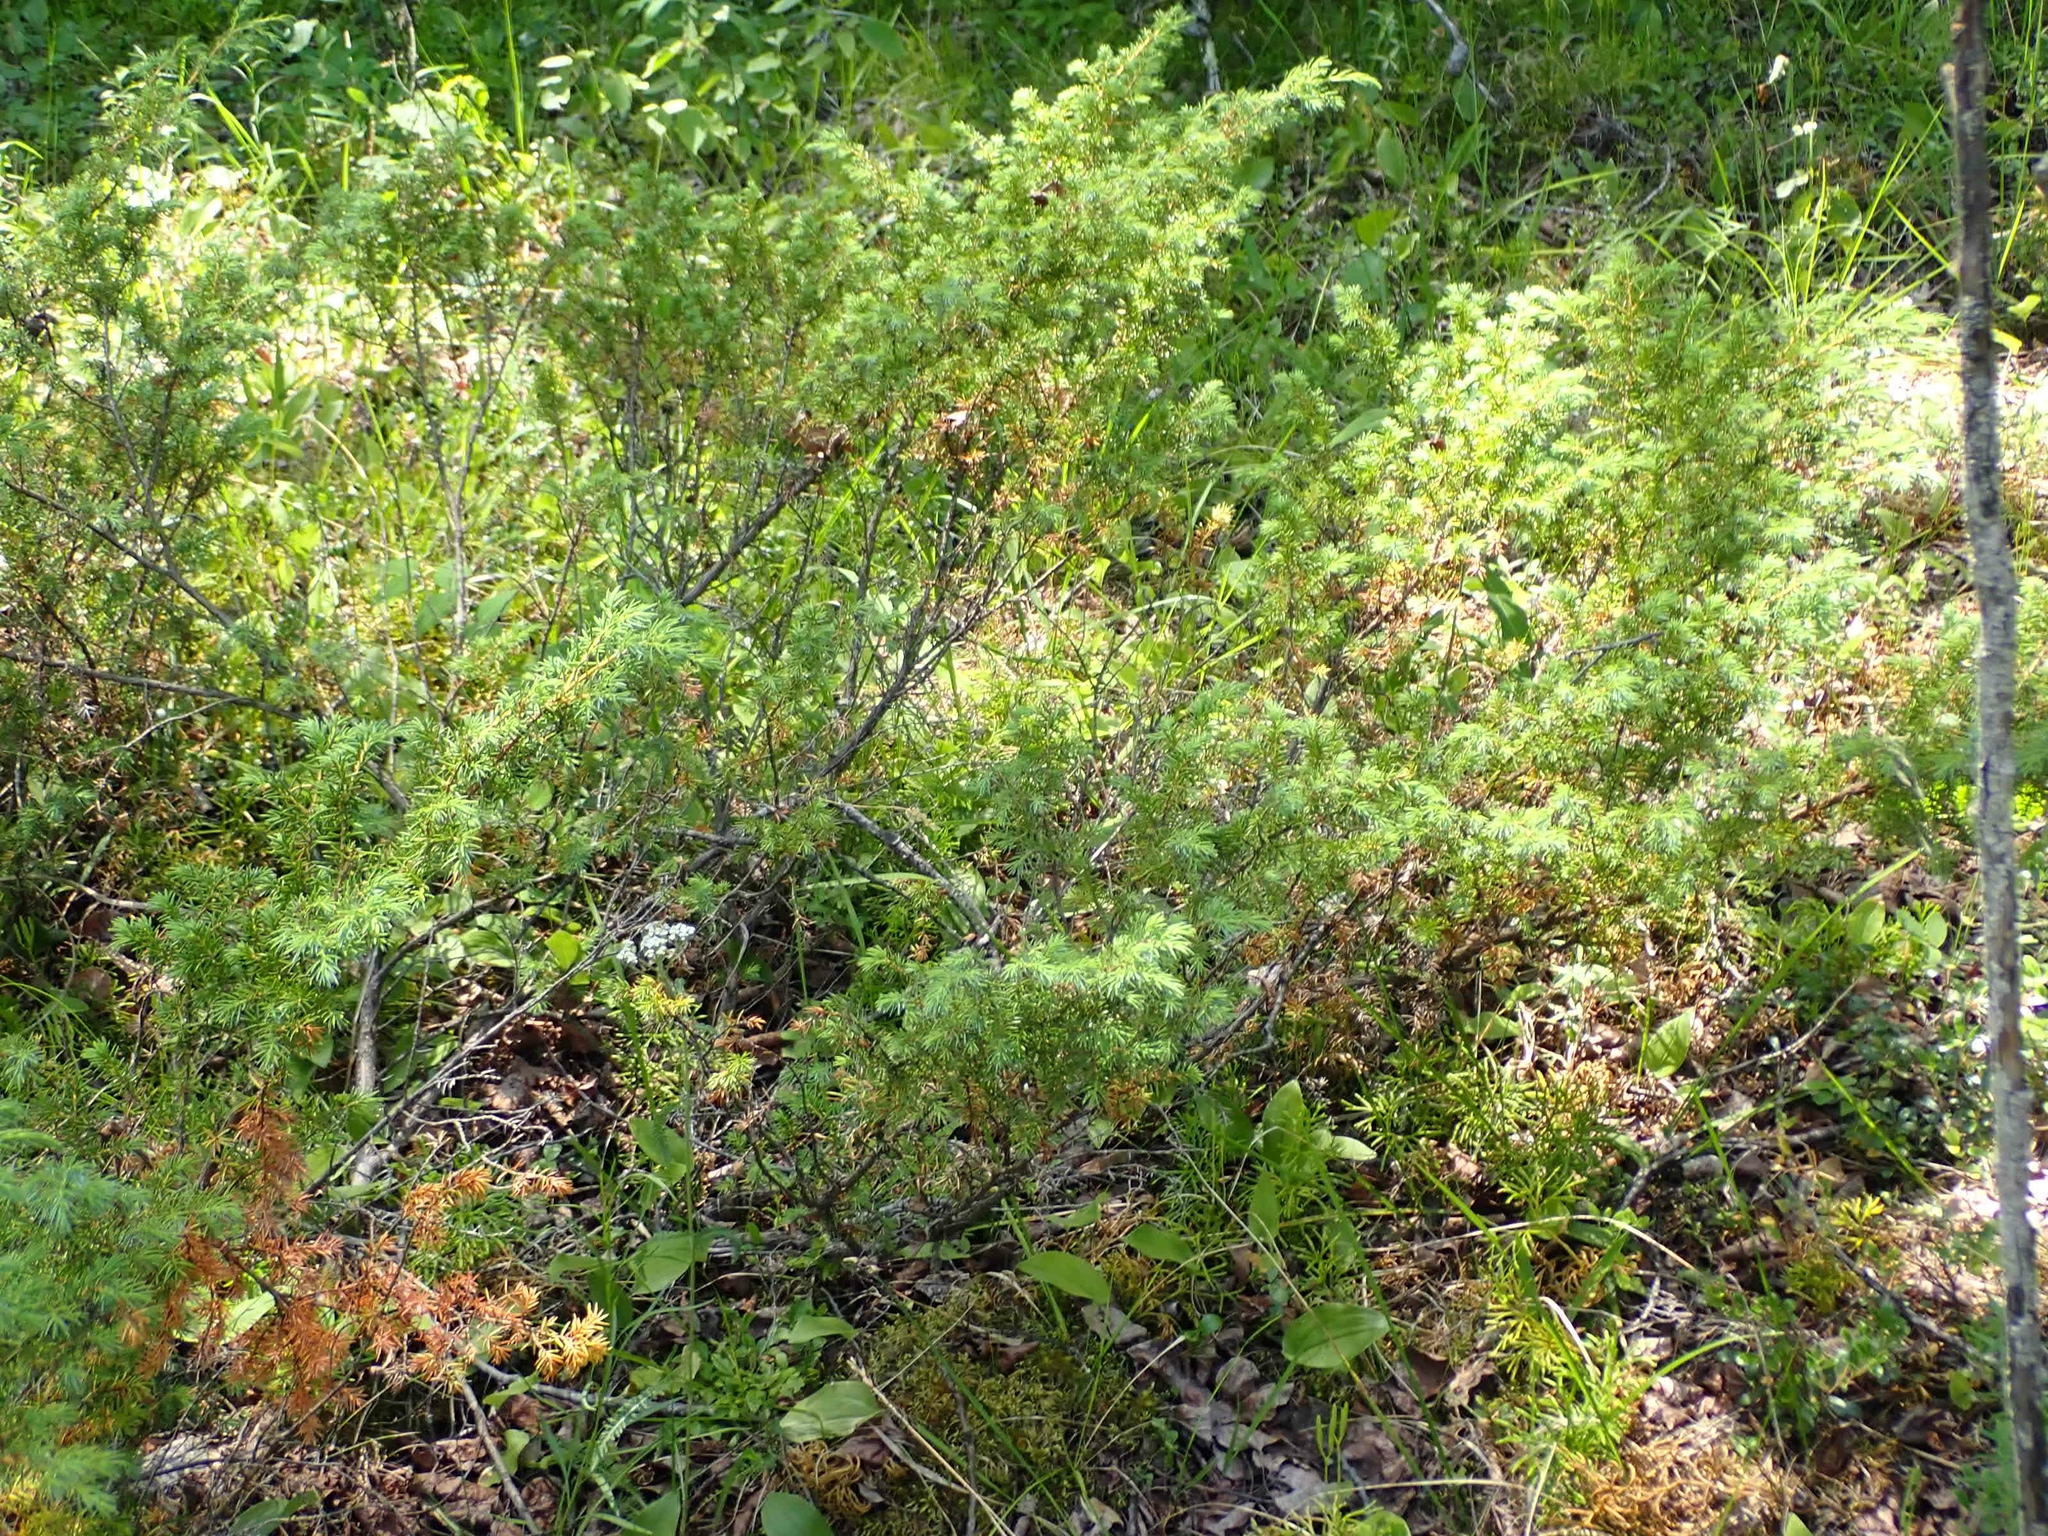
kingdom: Plantae
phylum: Tracheophyta
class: Pinopsida
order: Pinales
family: Cupressaceae
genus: Juniperus
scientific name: Juniperus communis
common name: Common juniper
